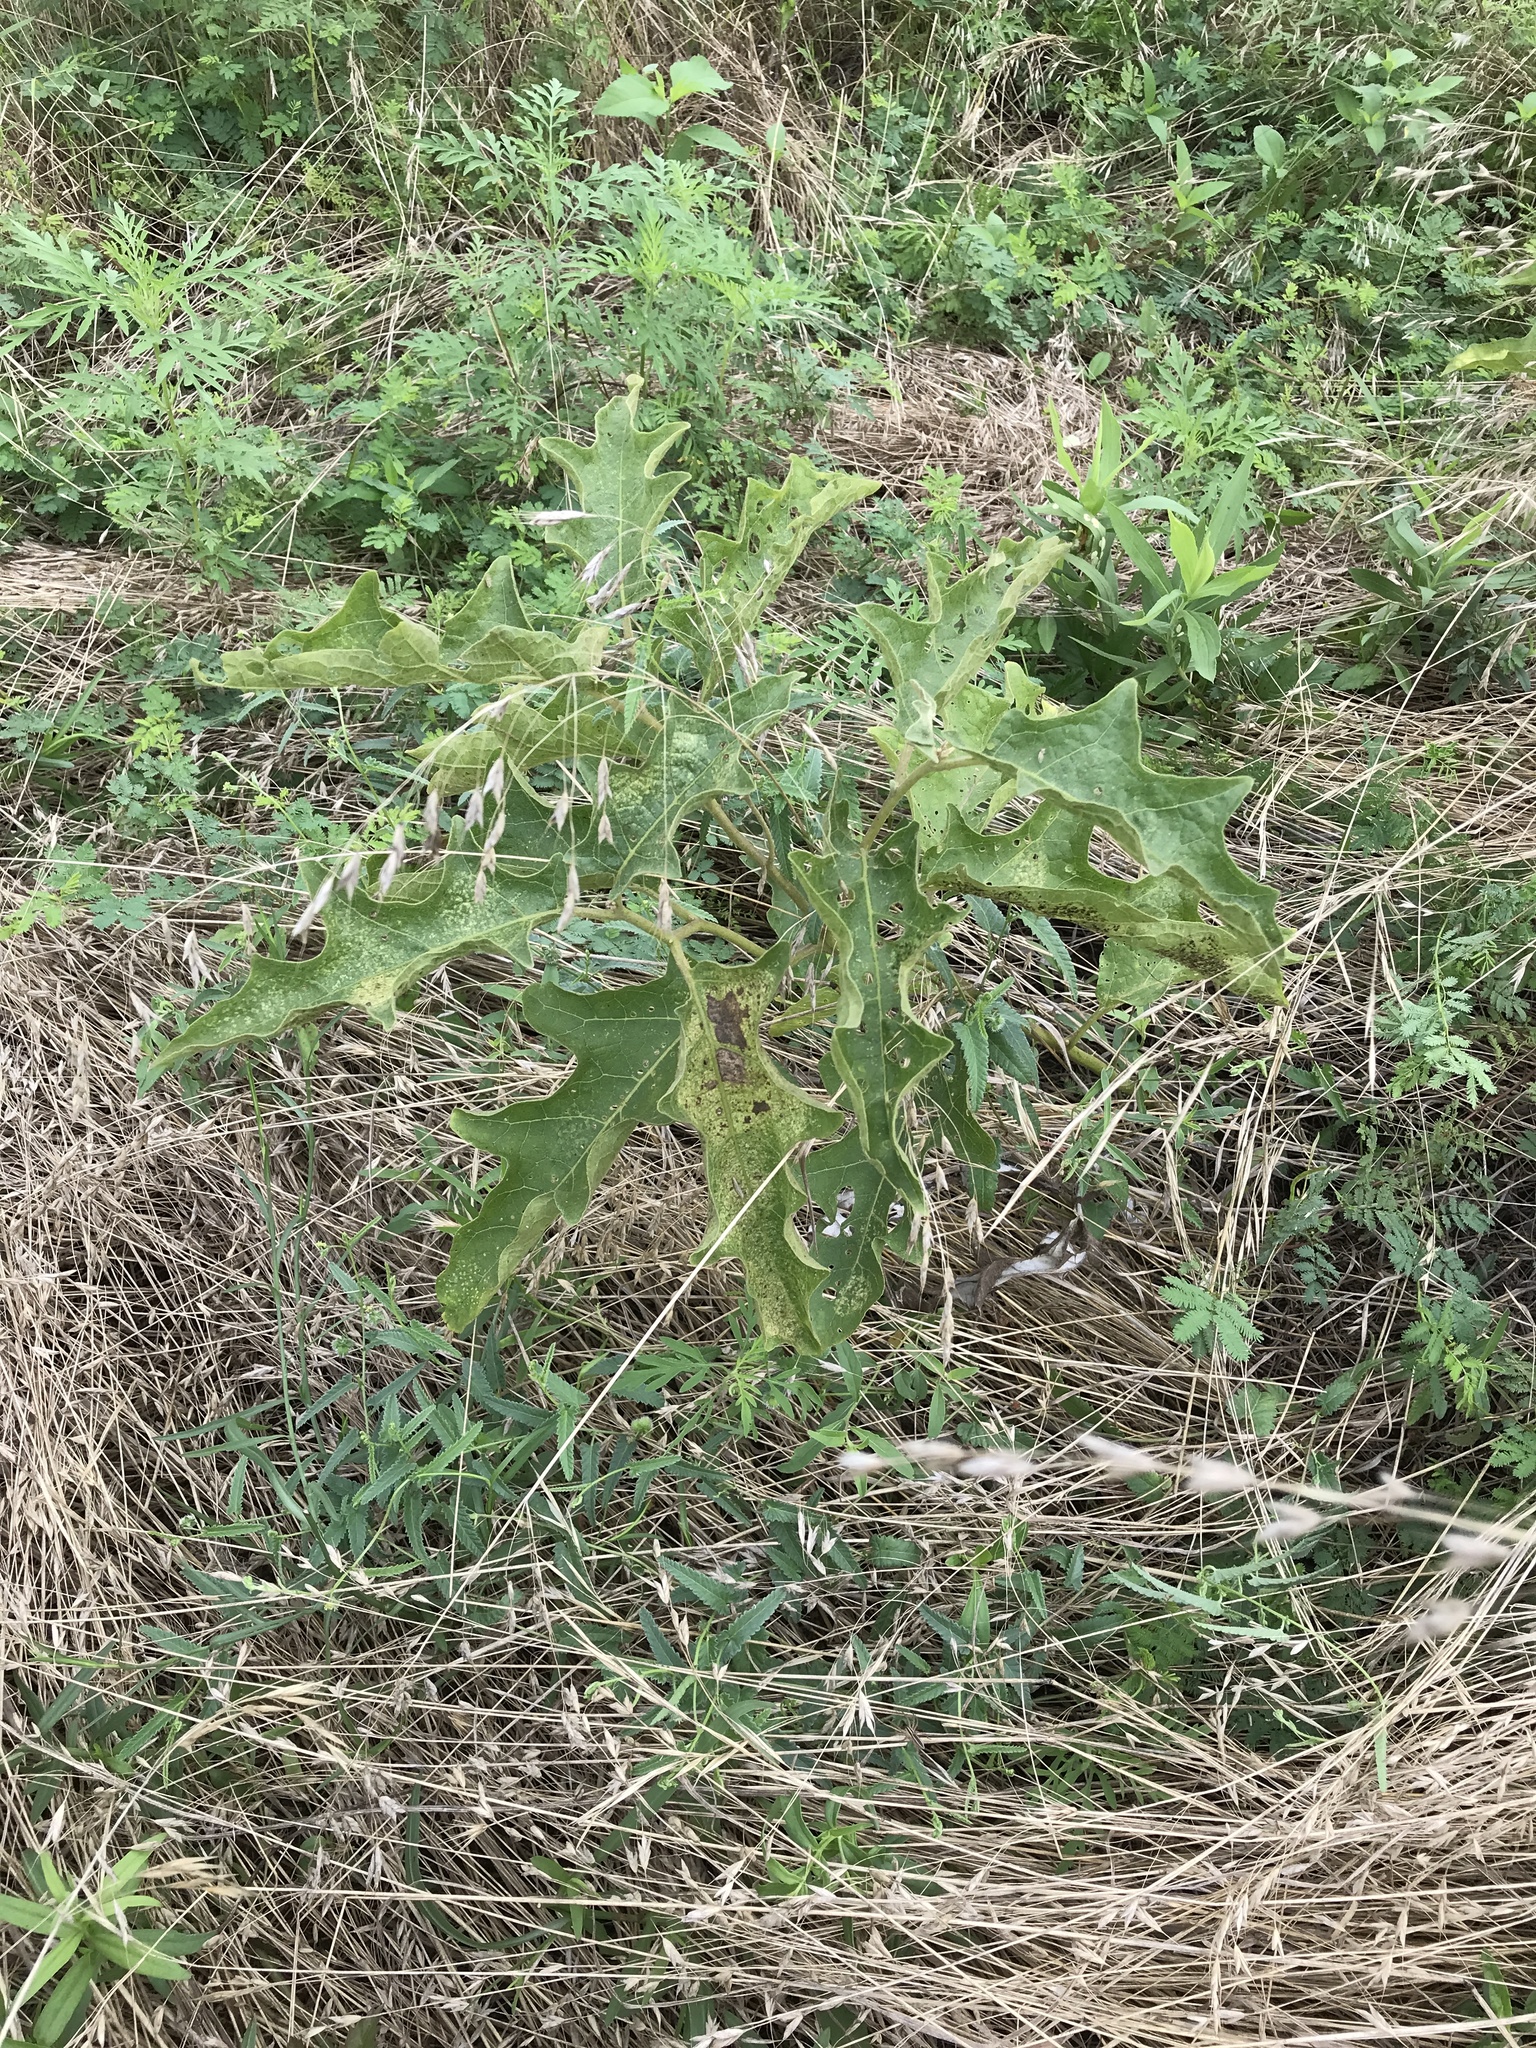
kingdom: Plantae
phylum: Tracheophyta
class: Magnoliopsida
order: Solanales
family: Solanaceae
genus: Solanum
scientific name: Solanum dimidiatum
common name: Carolina horse-nettle
